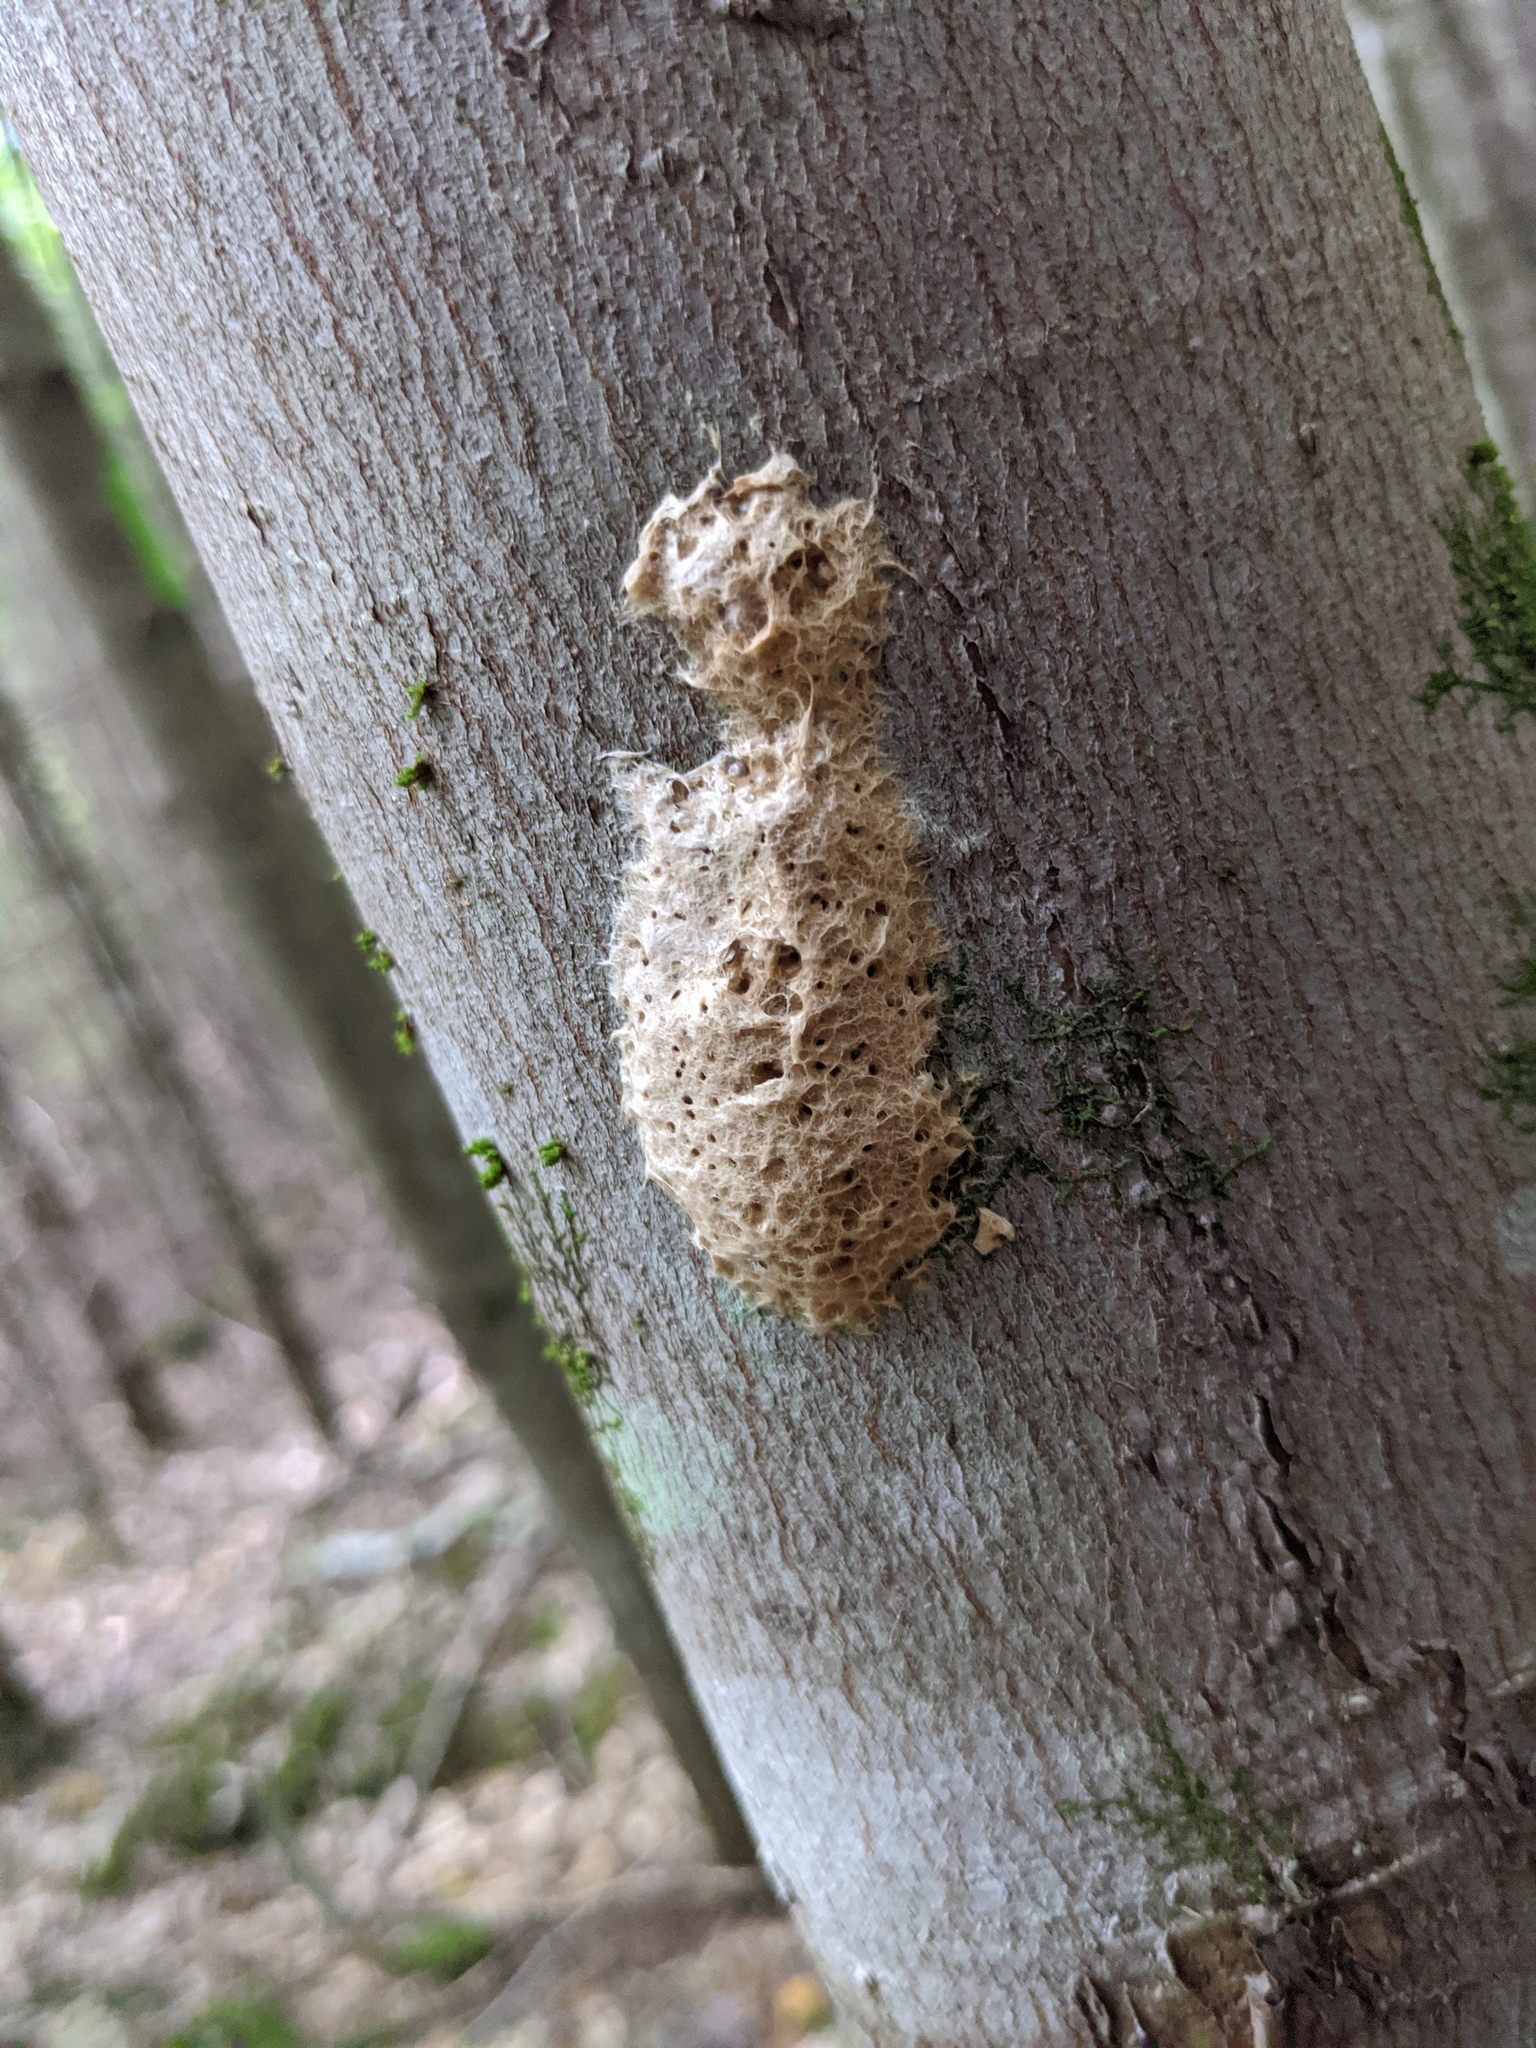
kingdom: Animalia
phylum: Arthropoda
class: Insecta
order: Lepidoptera
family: Erebidae
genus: Lymantria
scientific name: Lymantria dispar
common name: Gypsy moth
